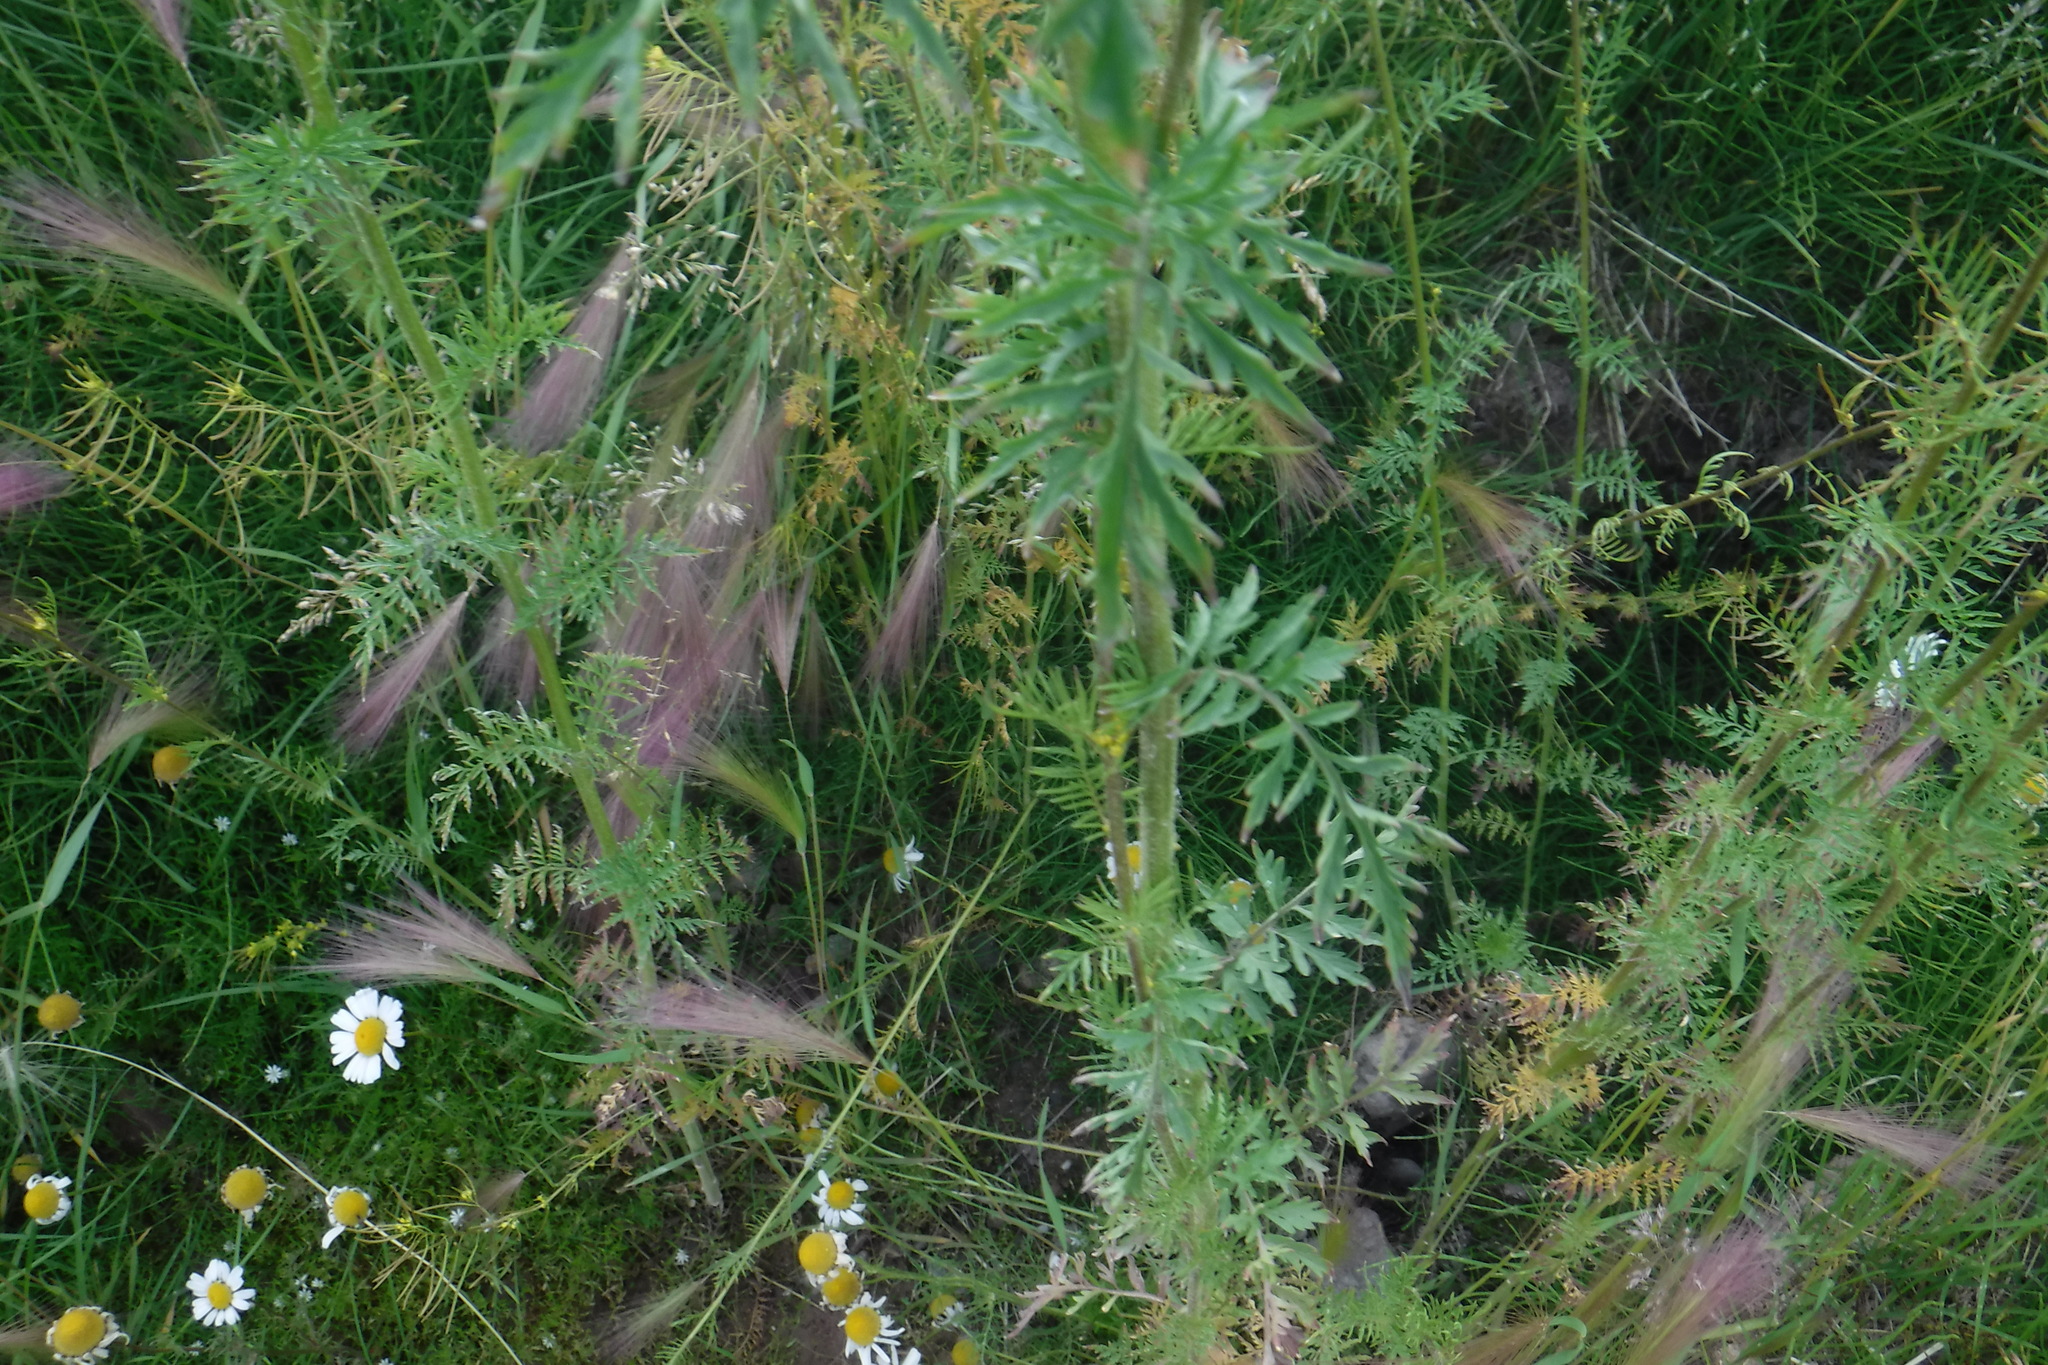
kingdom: Plantae
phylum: Tracheophyta
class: Magnoliopsida
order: Brassicales
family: Brassicaceae
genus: Descurainia
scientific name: Descurainia sophioides
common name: Northern tansy mustard
